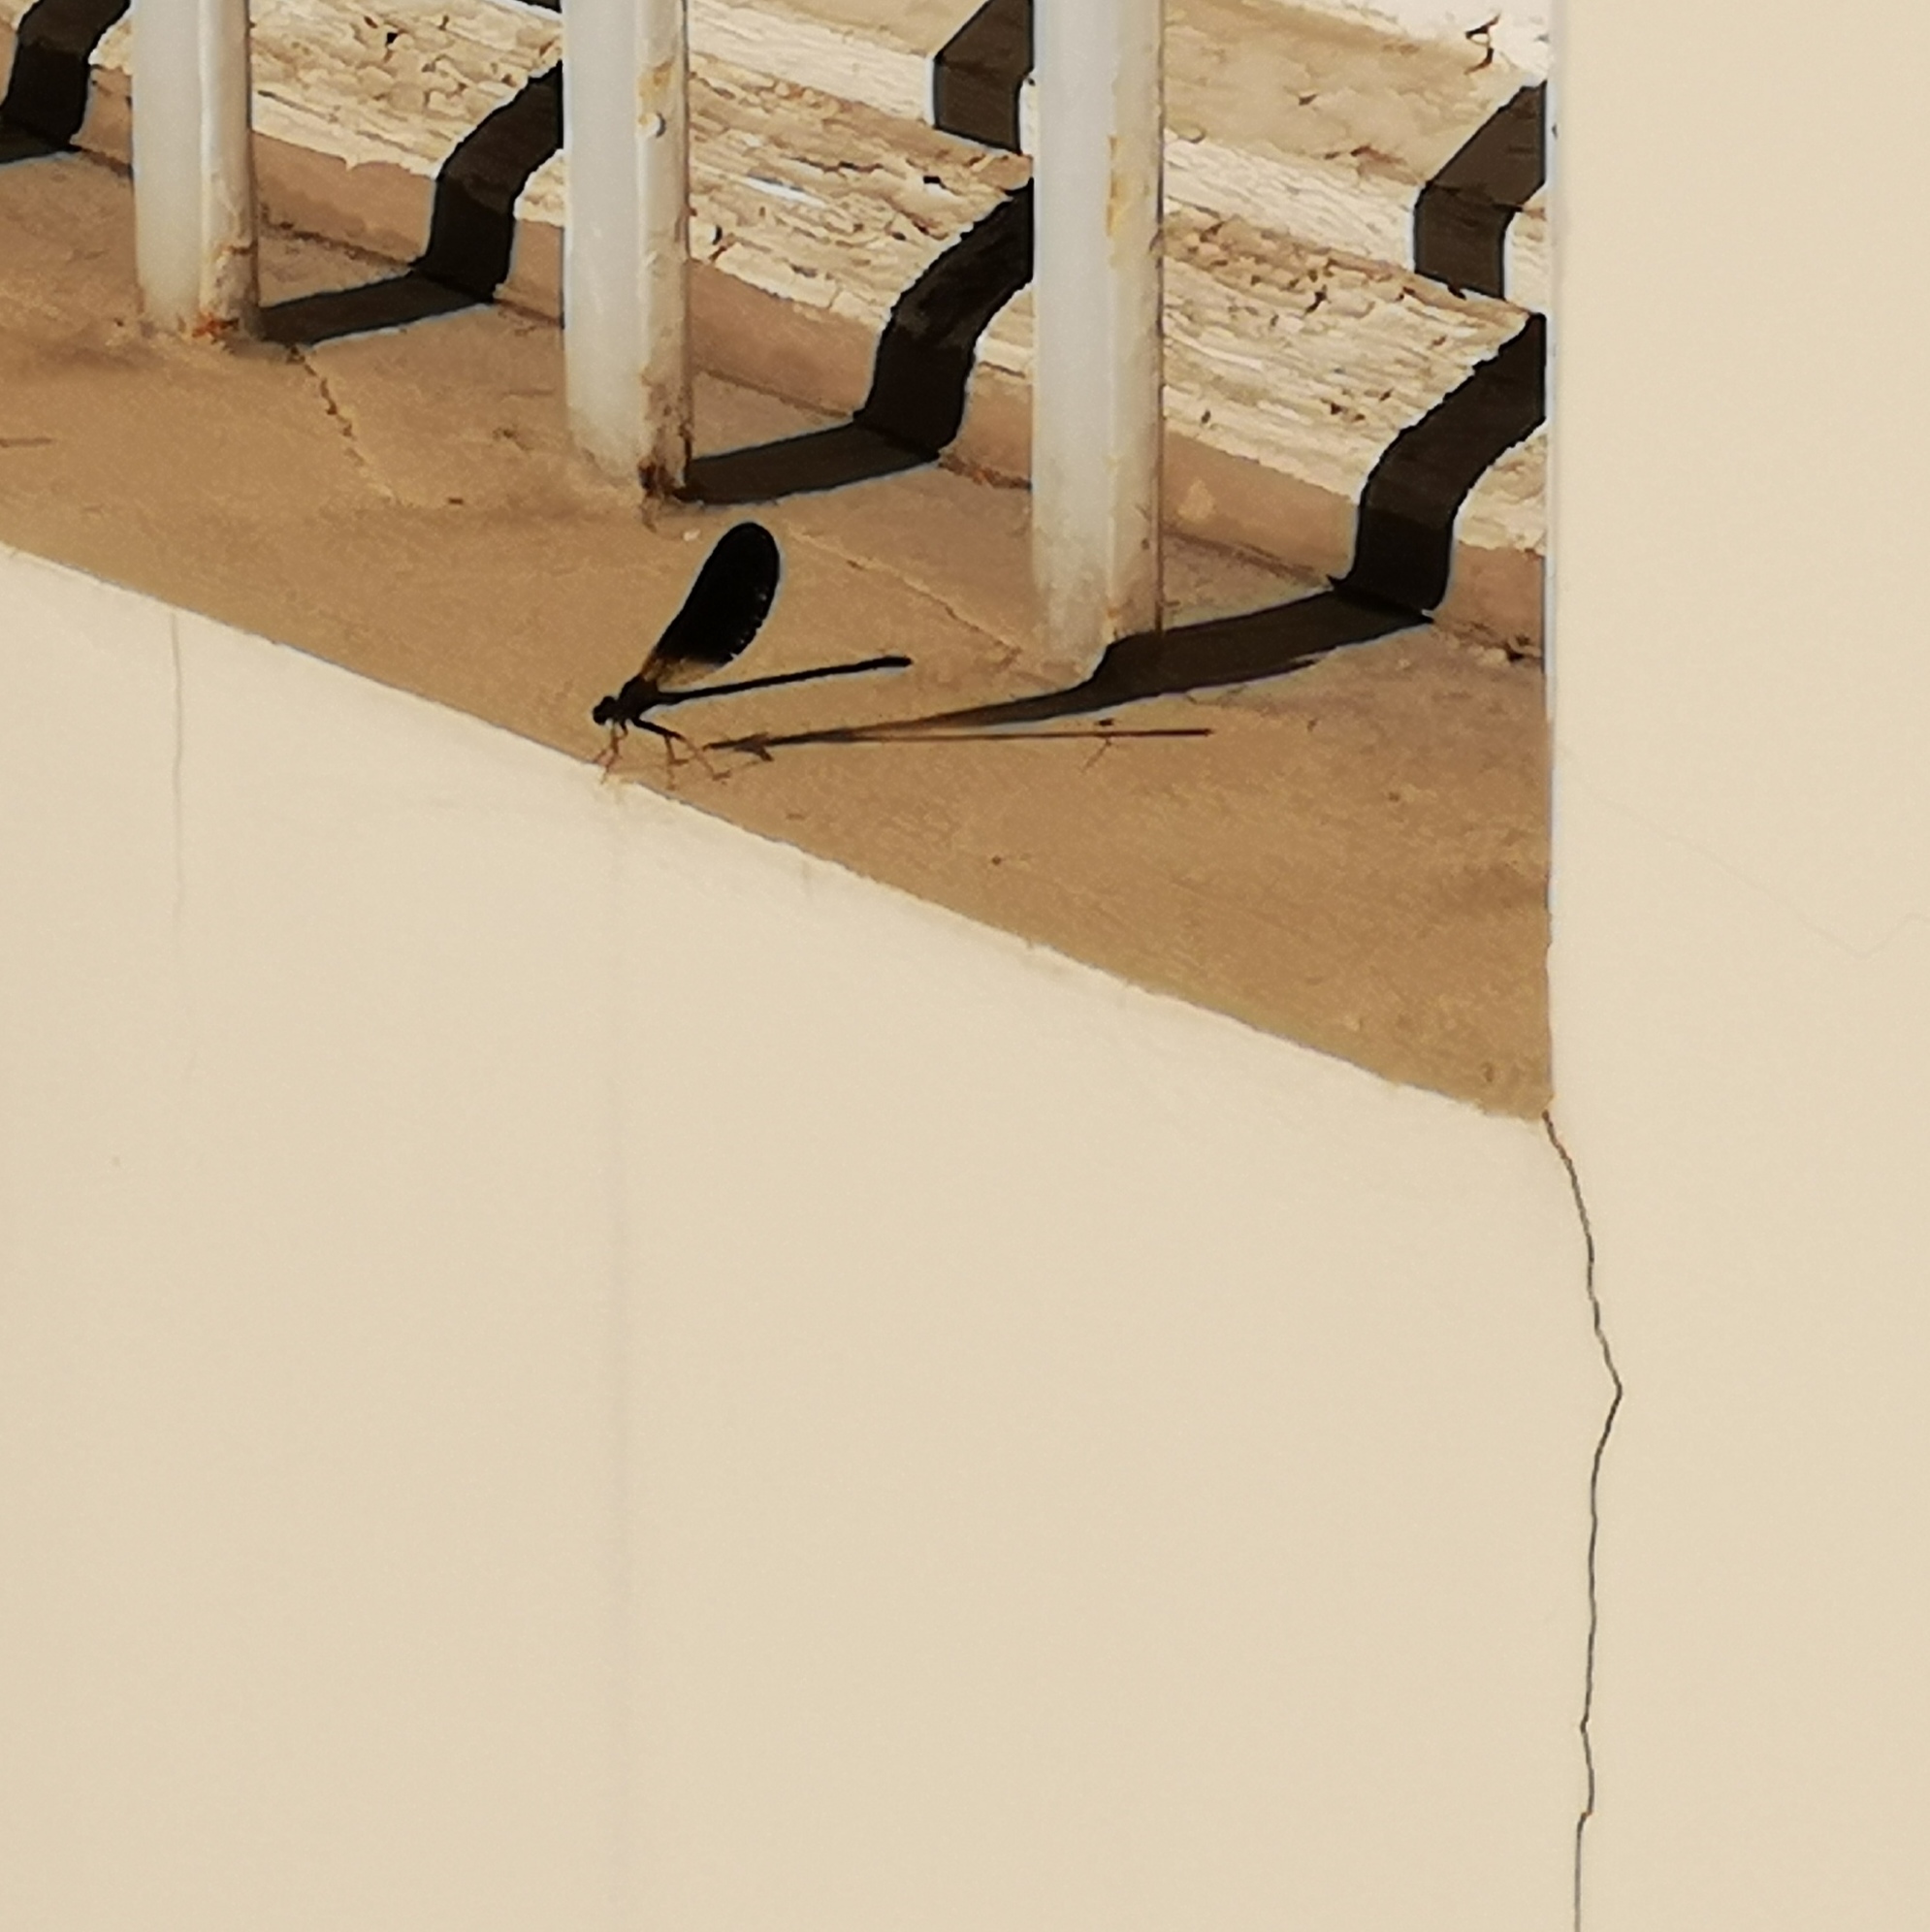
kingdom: Animalia
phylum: Arthropoda
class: Insecta
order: Odonata
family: Calopterygidae
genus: Calopteryx
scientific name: Calopteryx haemorrhoidalis
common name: Copper demoiselle
